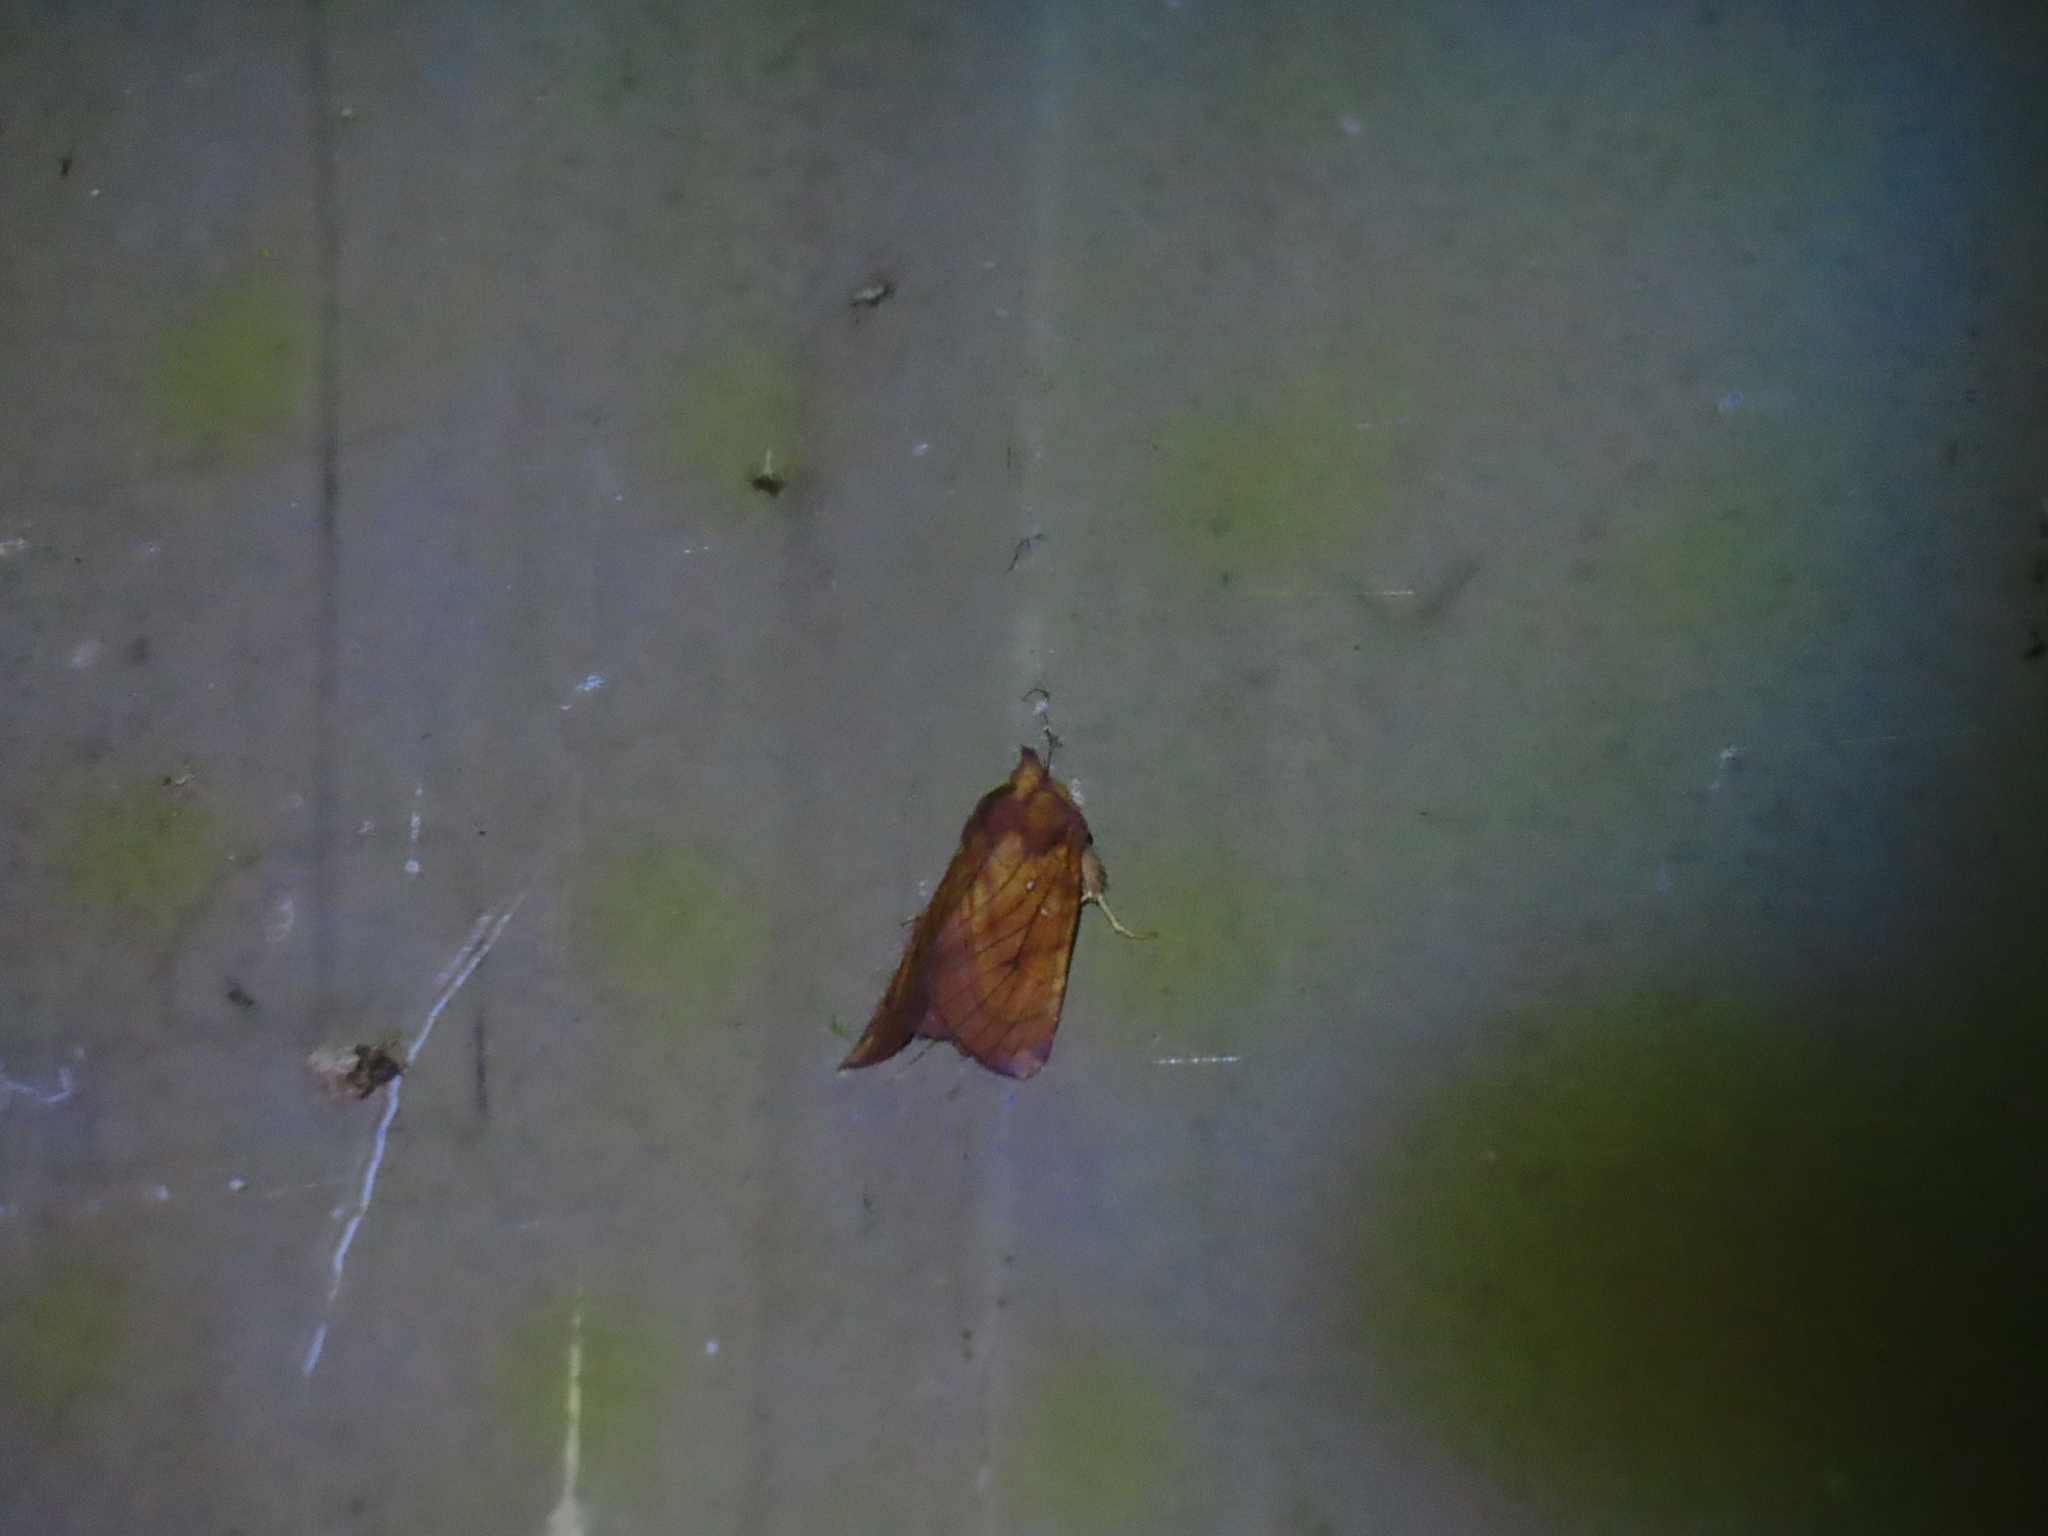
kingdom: Animalia
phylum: Arthropoda
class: Insecta
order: Lepidoptera
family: Noctuidae
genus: Papaipema
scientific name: Papaipema inquaesita
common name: Sensitive fern borer moth
